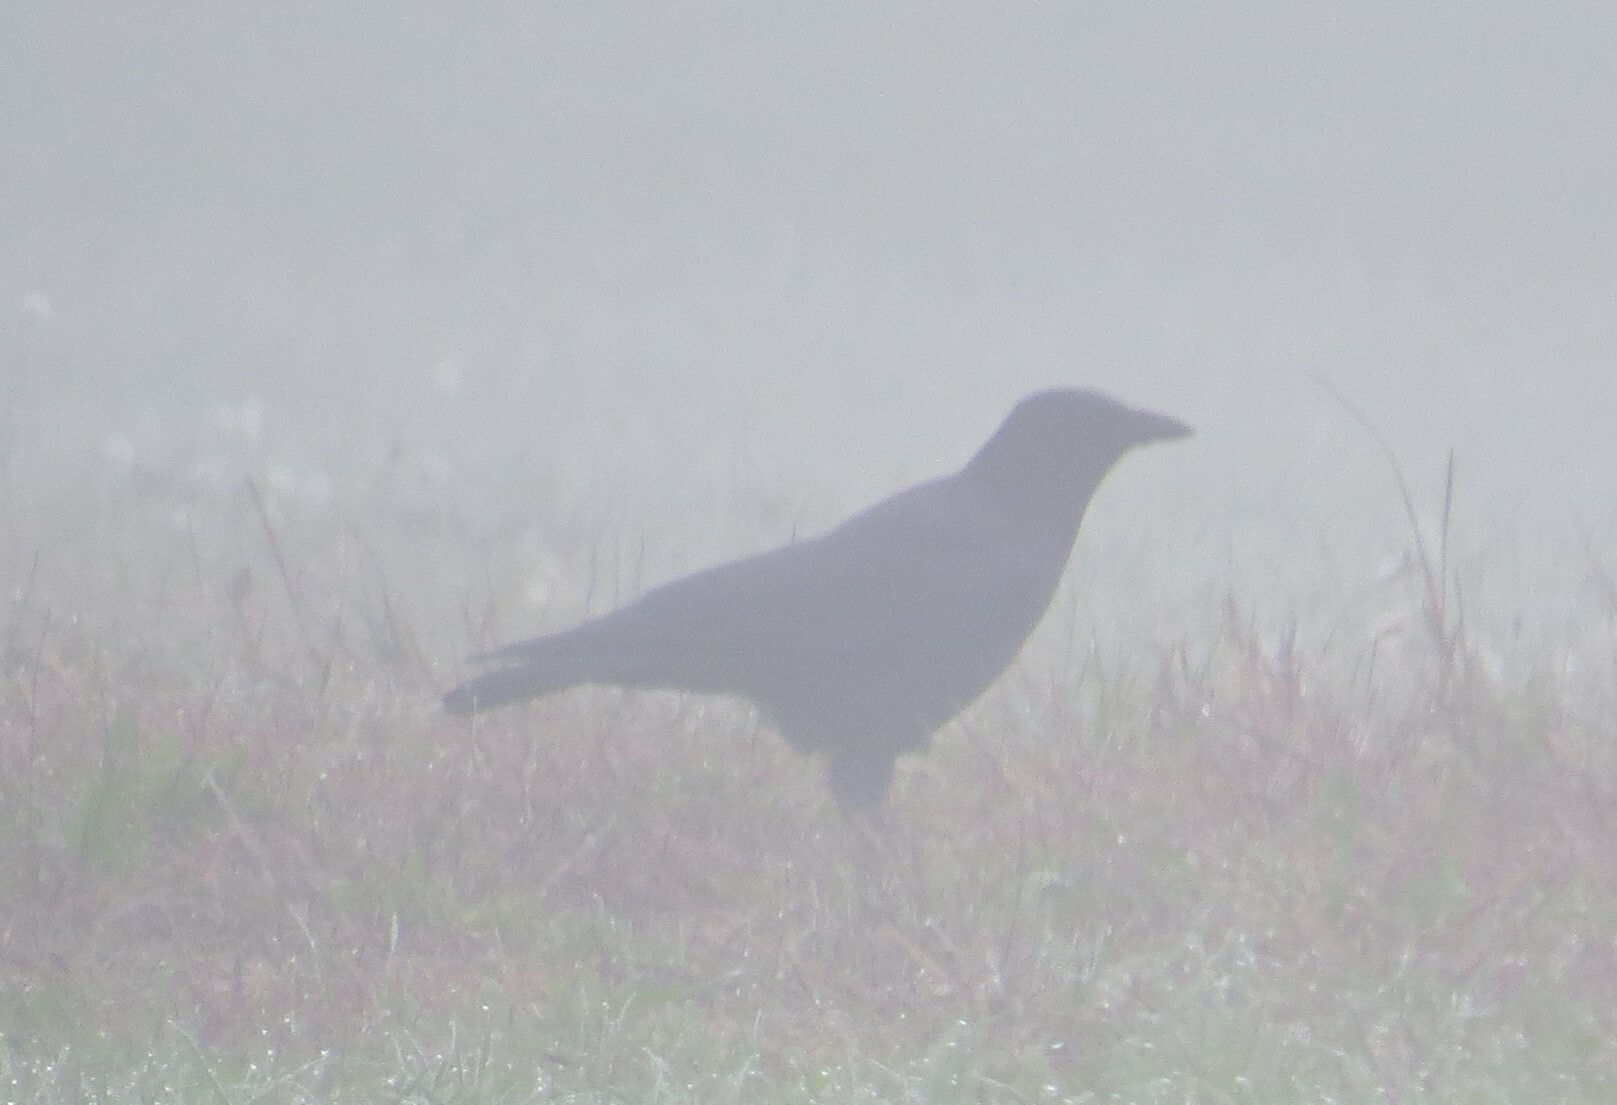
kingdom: Animalia
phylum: Chordata
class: Aves
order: Passeriformes
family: Corvidae
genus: Corvus
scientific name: Corvus brachyrhynchos
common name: American crow
